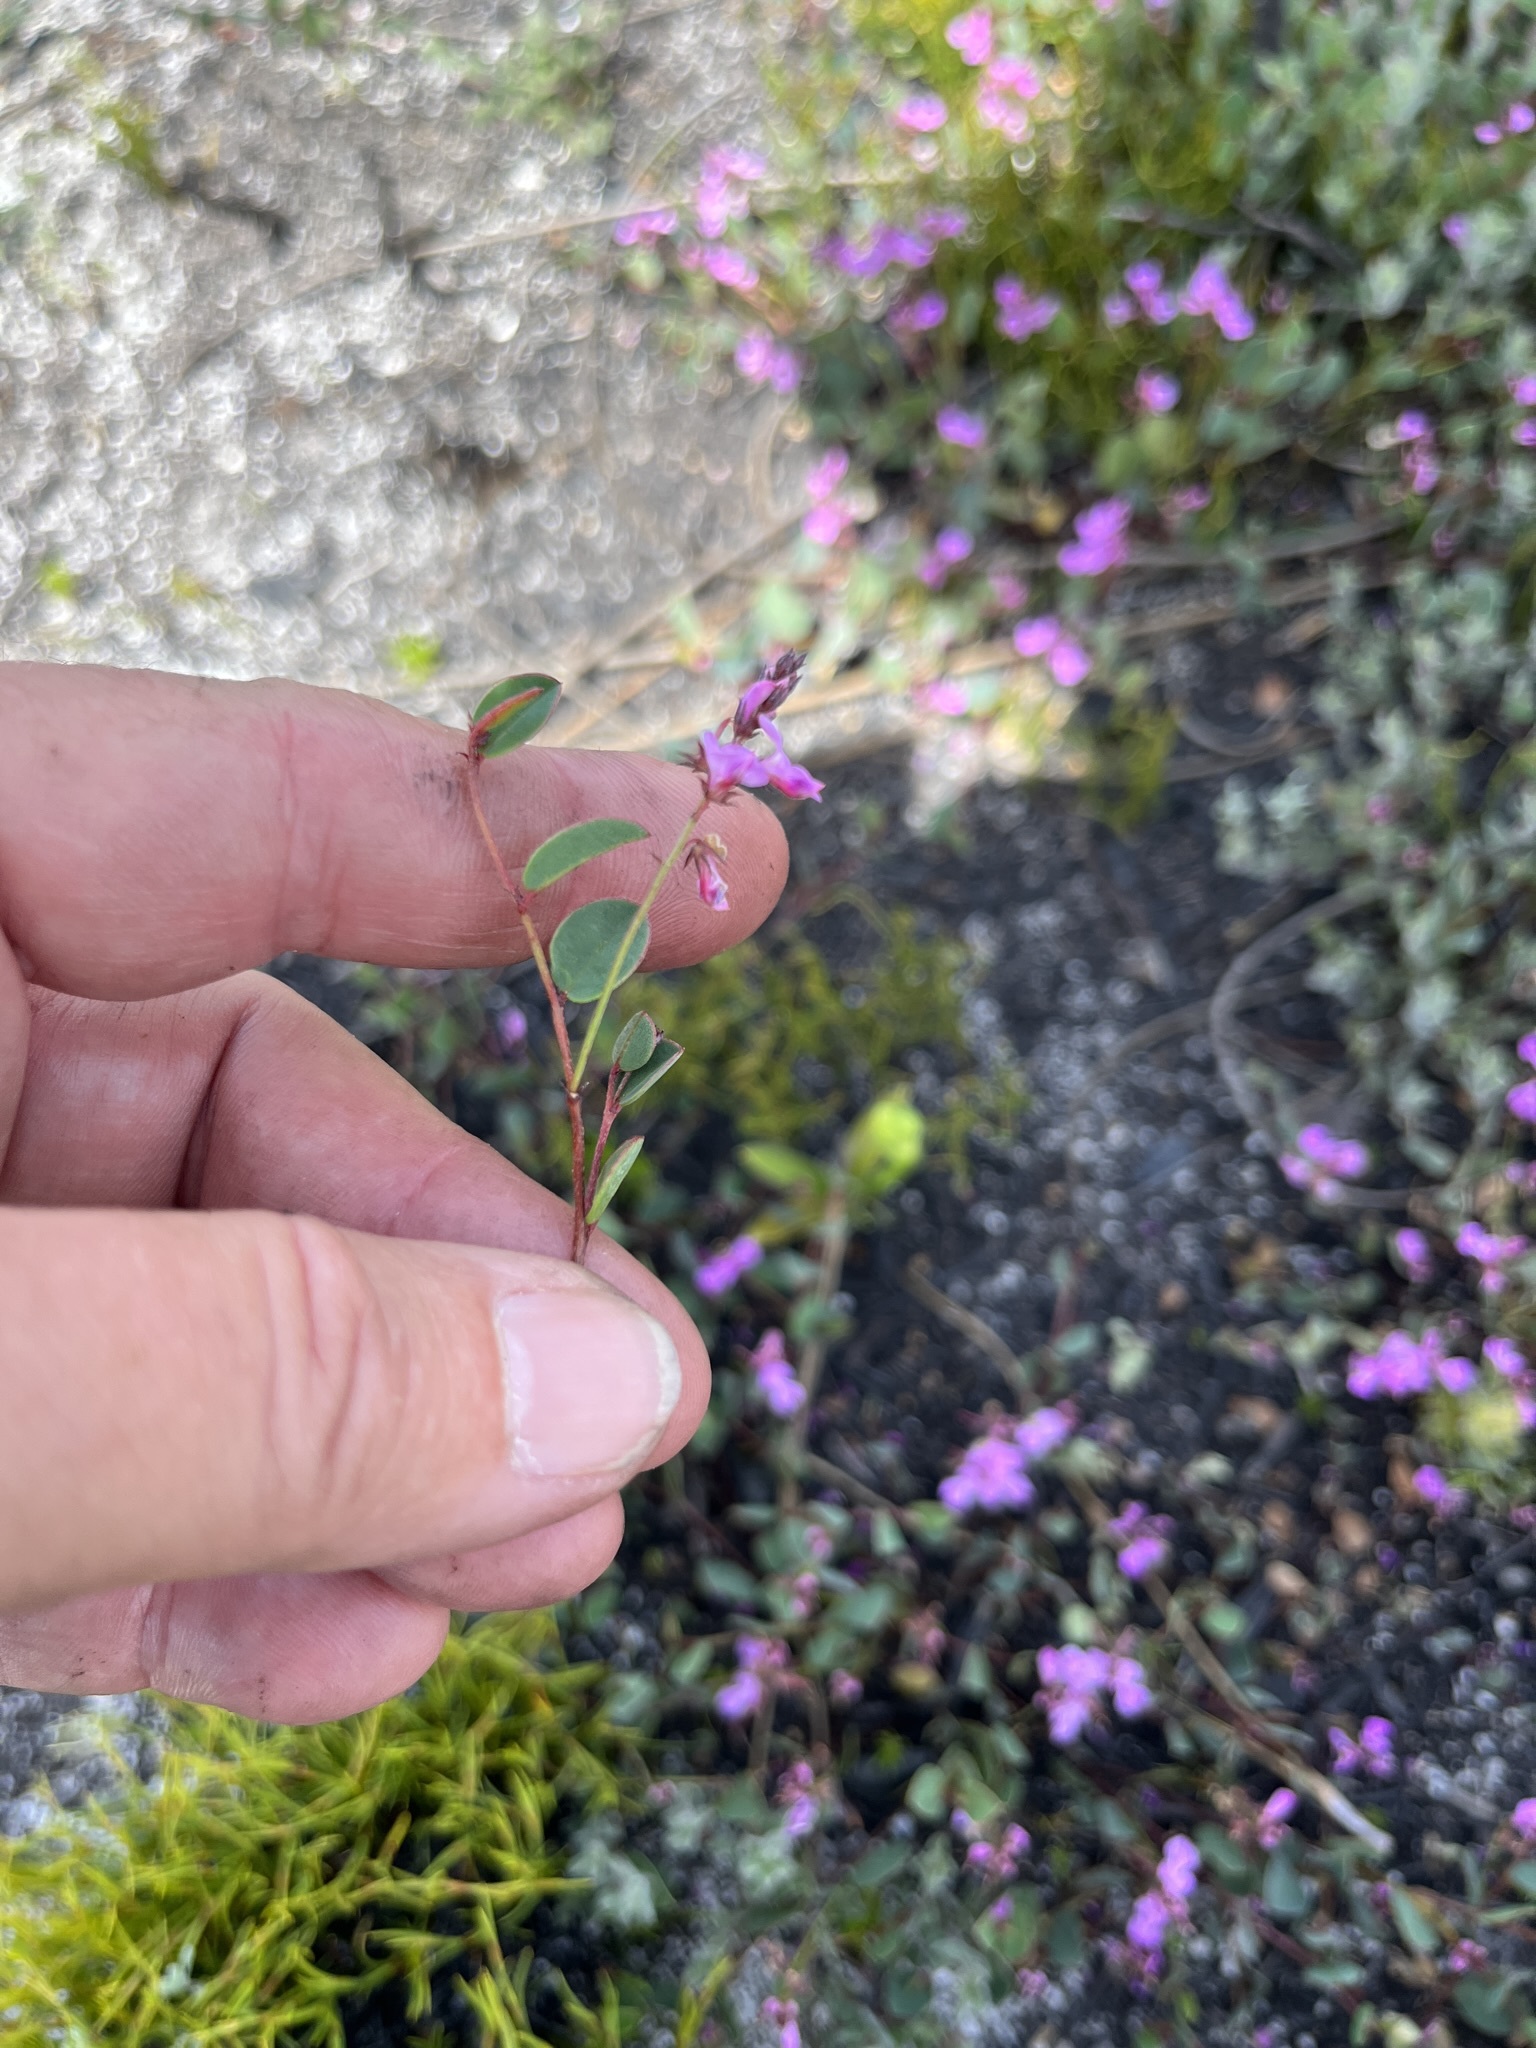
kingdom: Plantae
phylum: Tracheophyta
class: Magnoliopsida
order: Fabales
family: Fabaceae
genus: Indigofera
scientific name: Indigofera ovata
